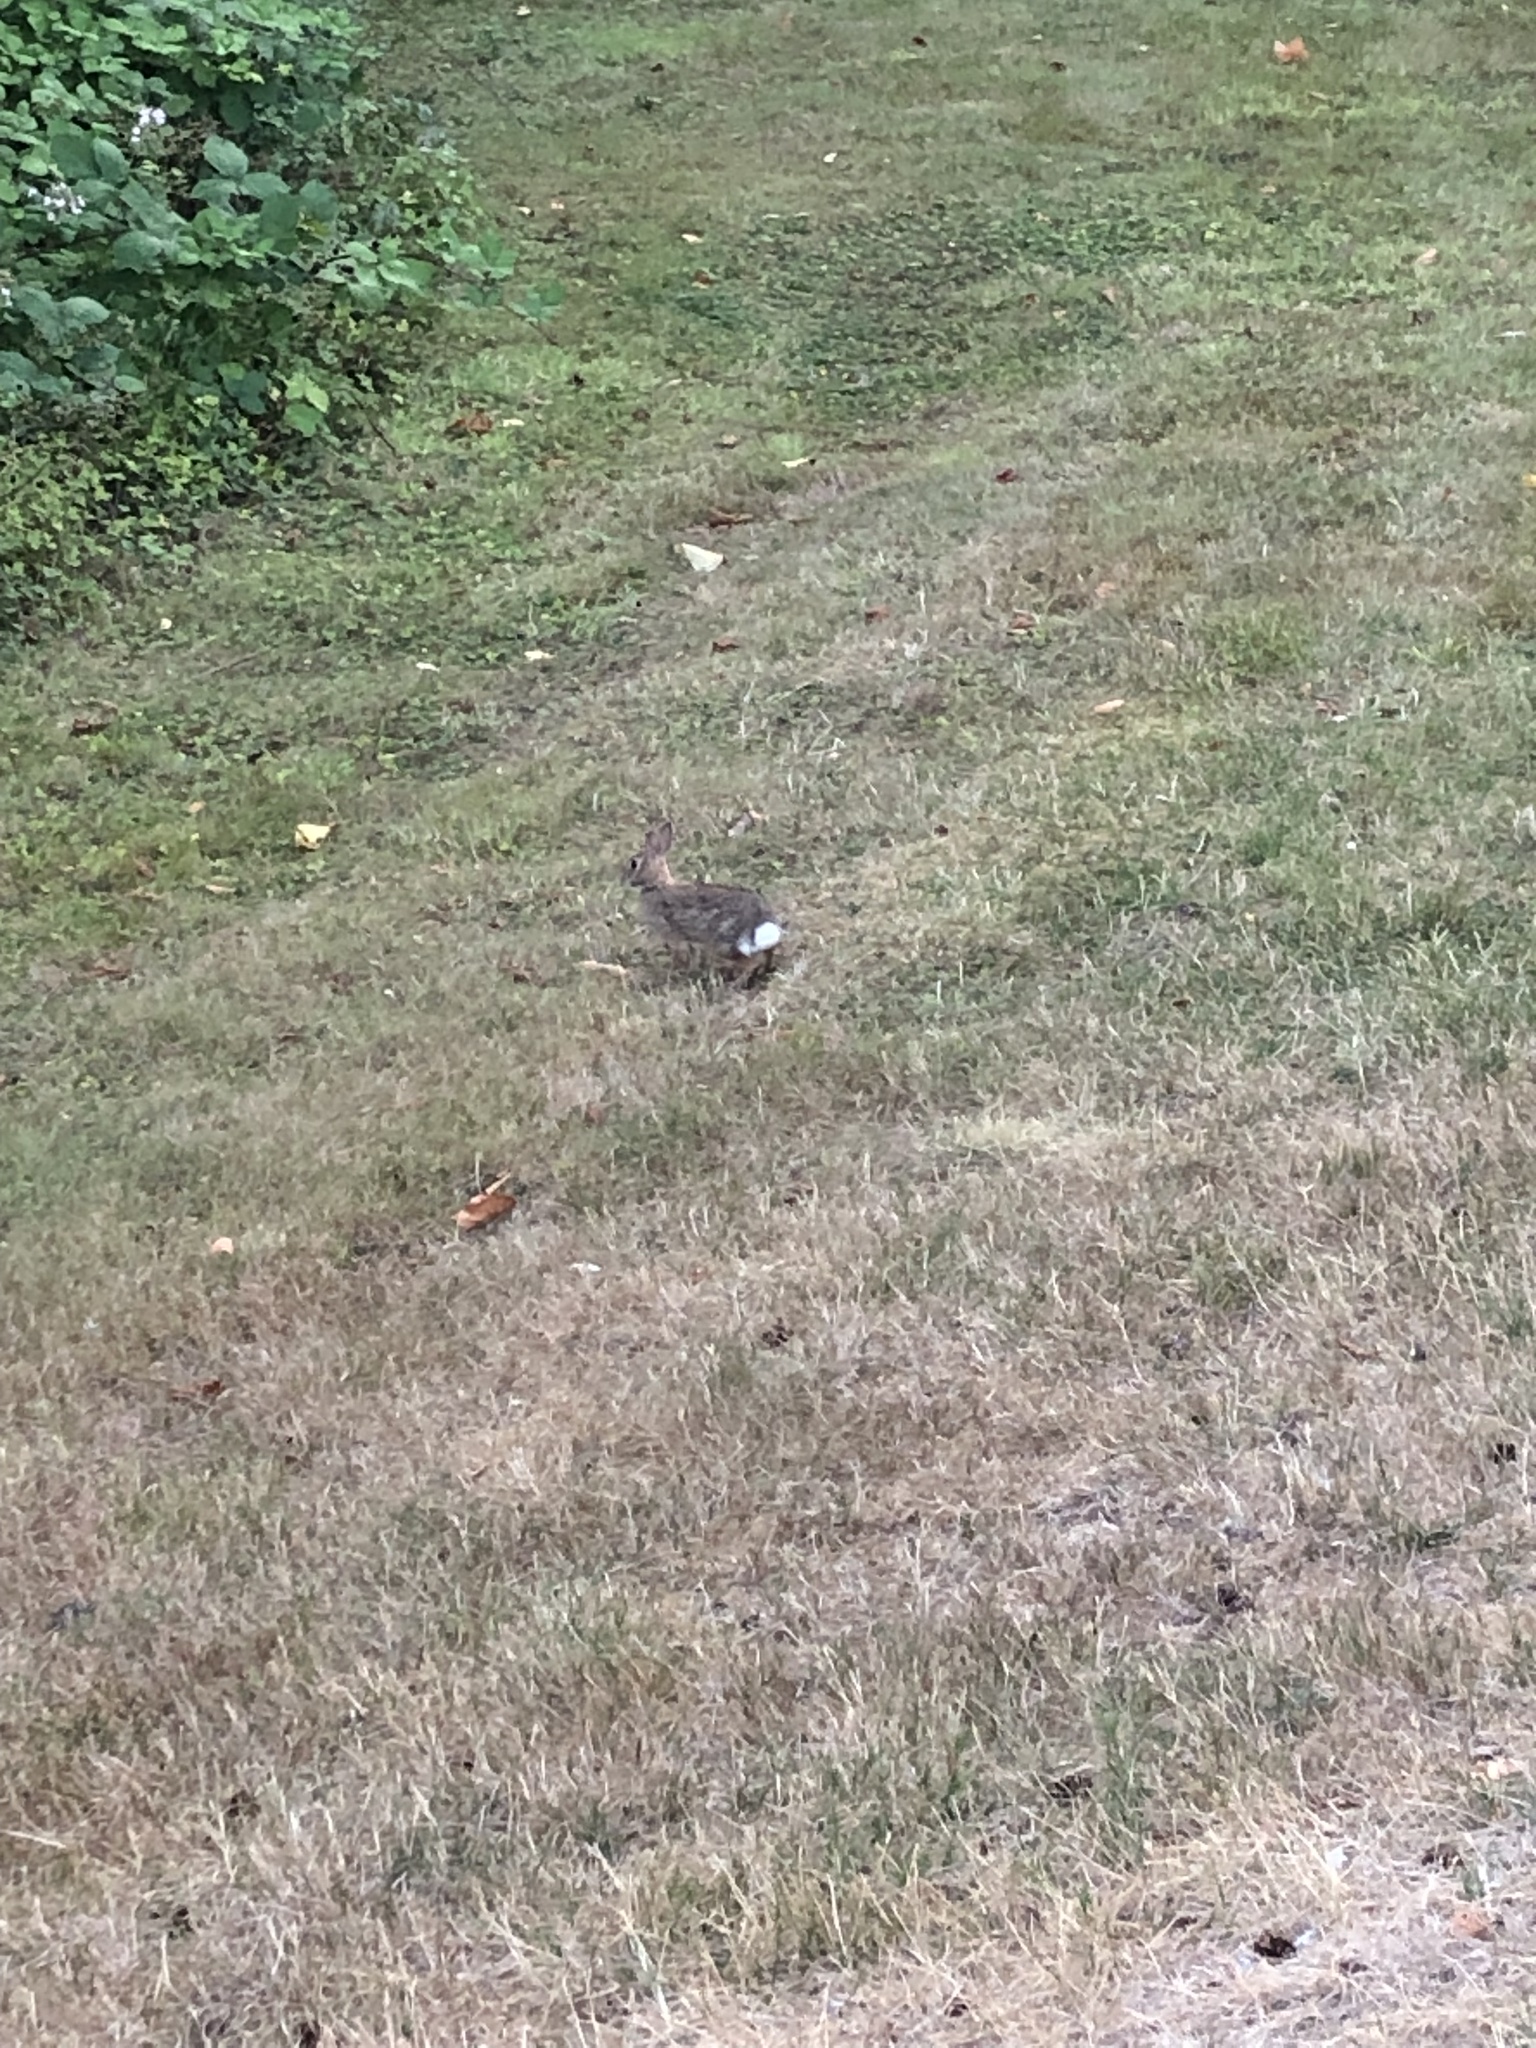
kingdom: Animalia
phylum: Chordata
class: Mammalia
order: Lagomorpha
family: Leporidae
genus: Sylvilagus
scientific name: Sylvilagus floridanus
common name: Eastern cottontail
